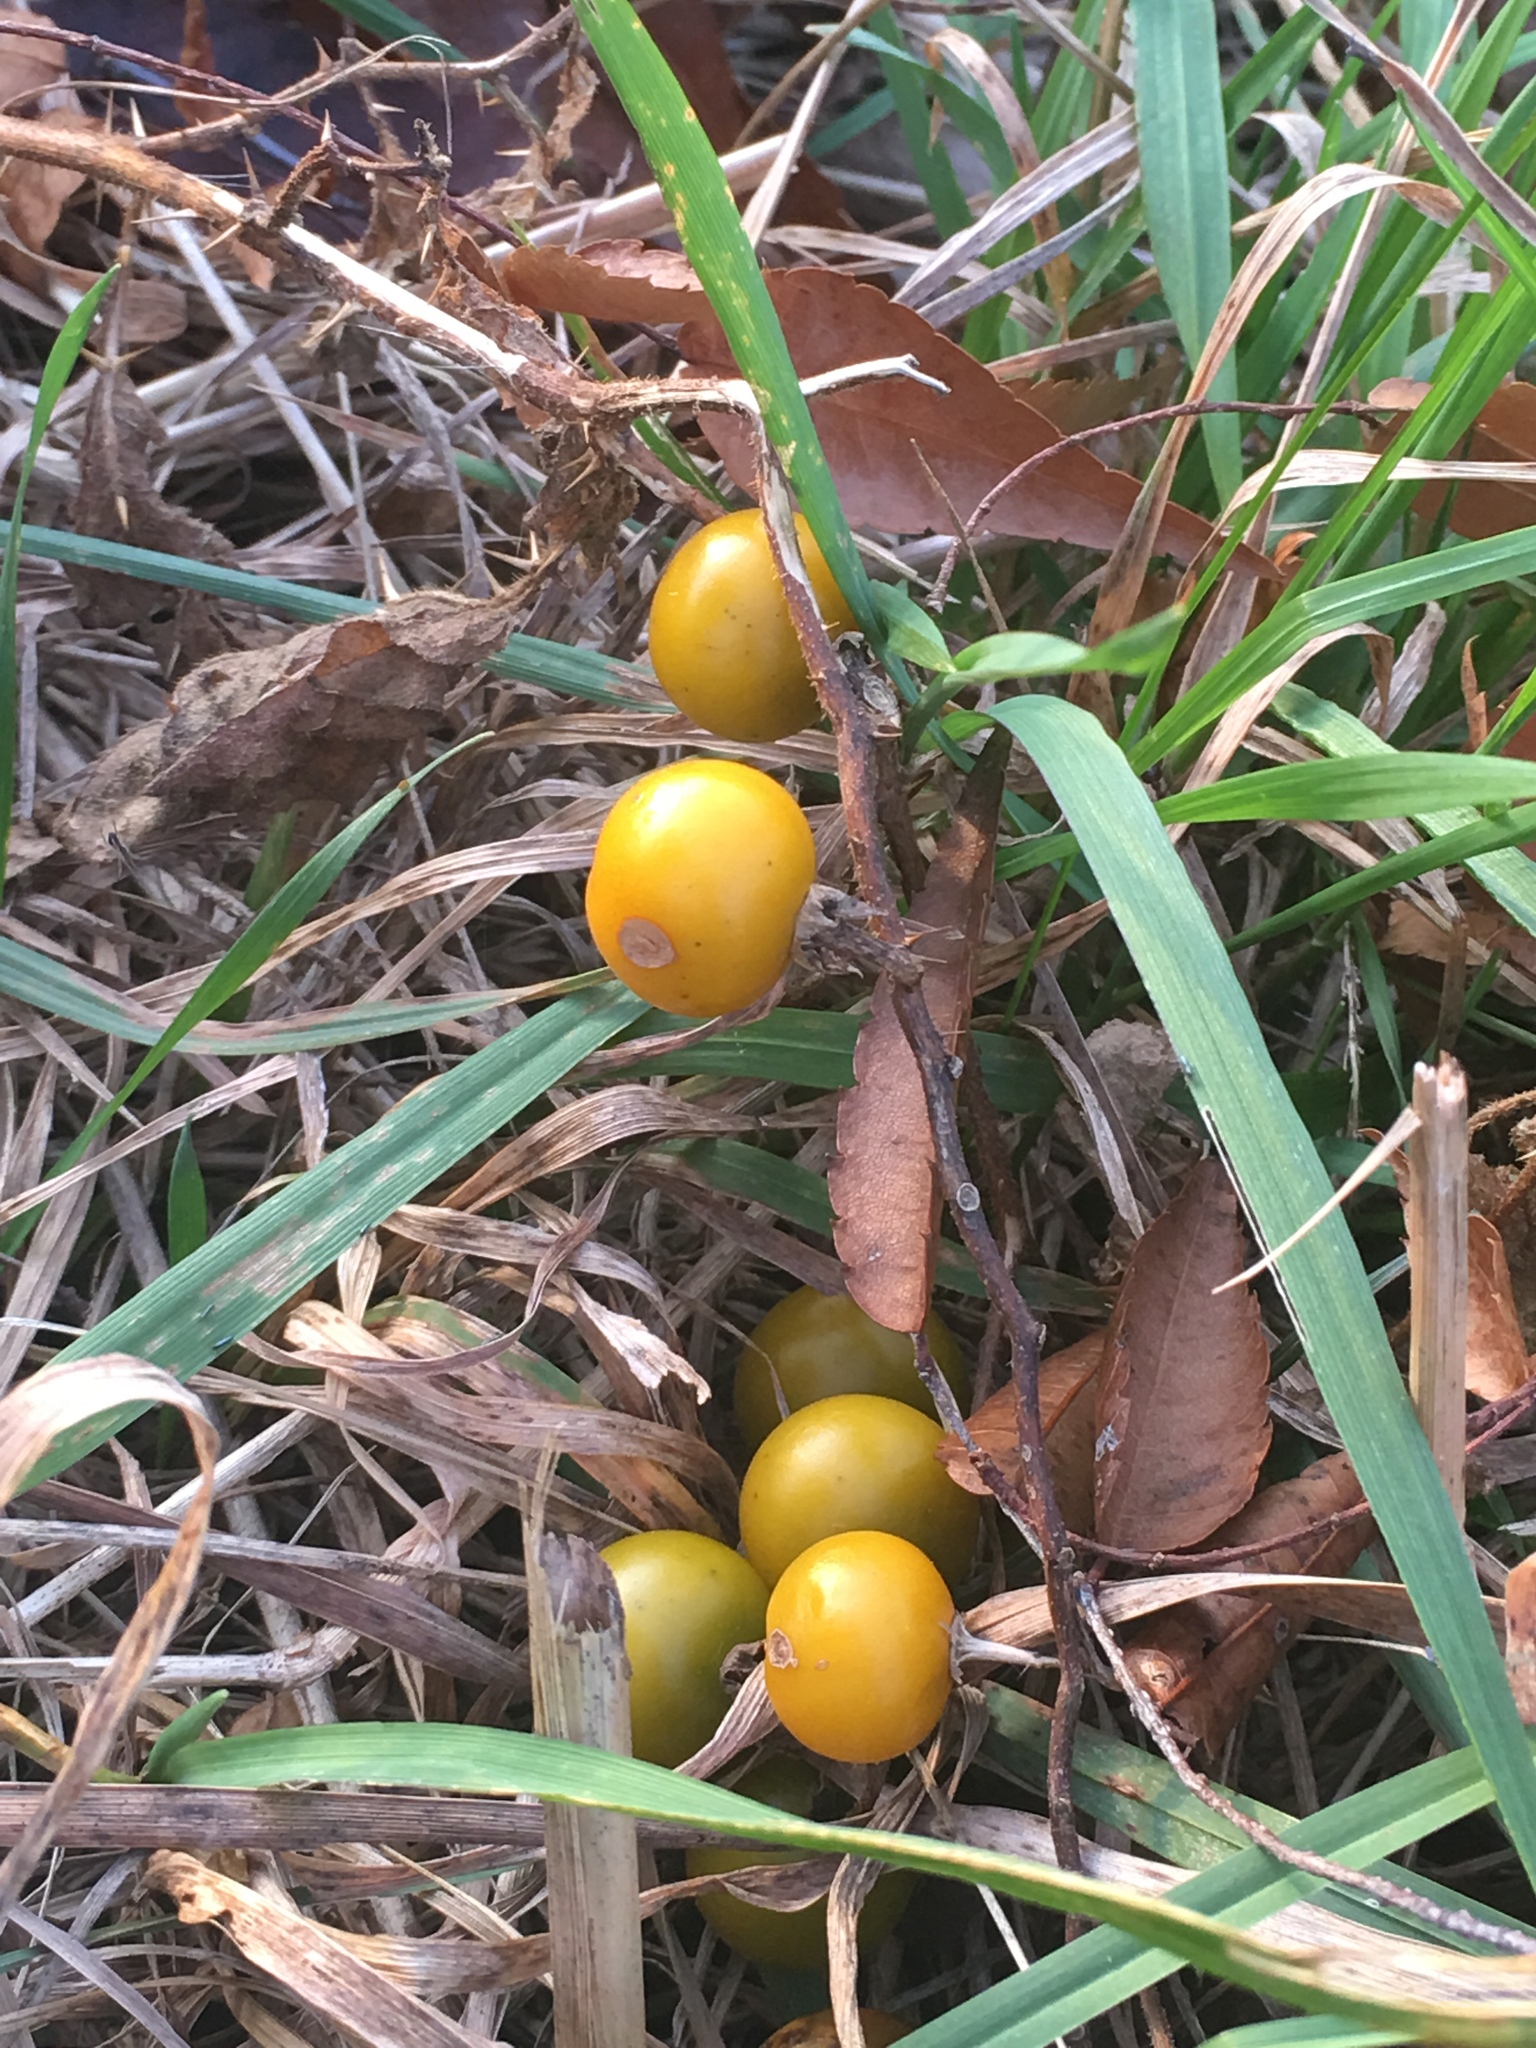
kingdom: Plantae
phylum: Tracheophyta
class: Magnoliopsida
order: Solanales
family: Solanaceae
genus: Solanum
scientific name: Solanum carolinense
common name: Horse-nettle
